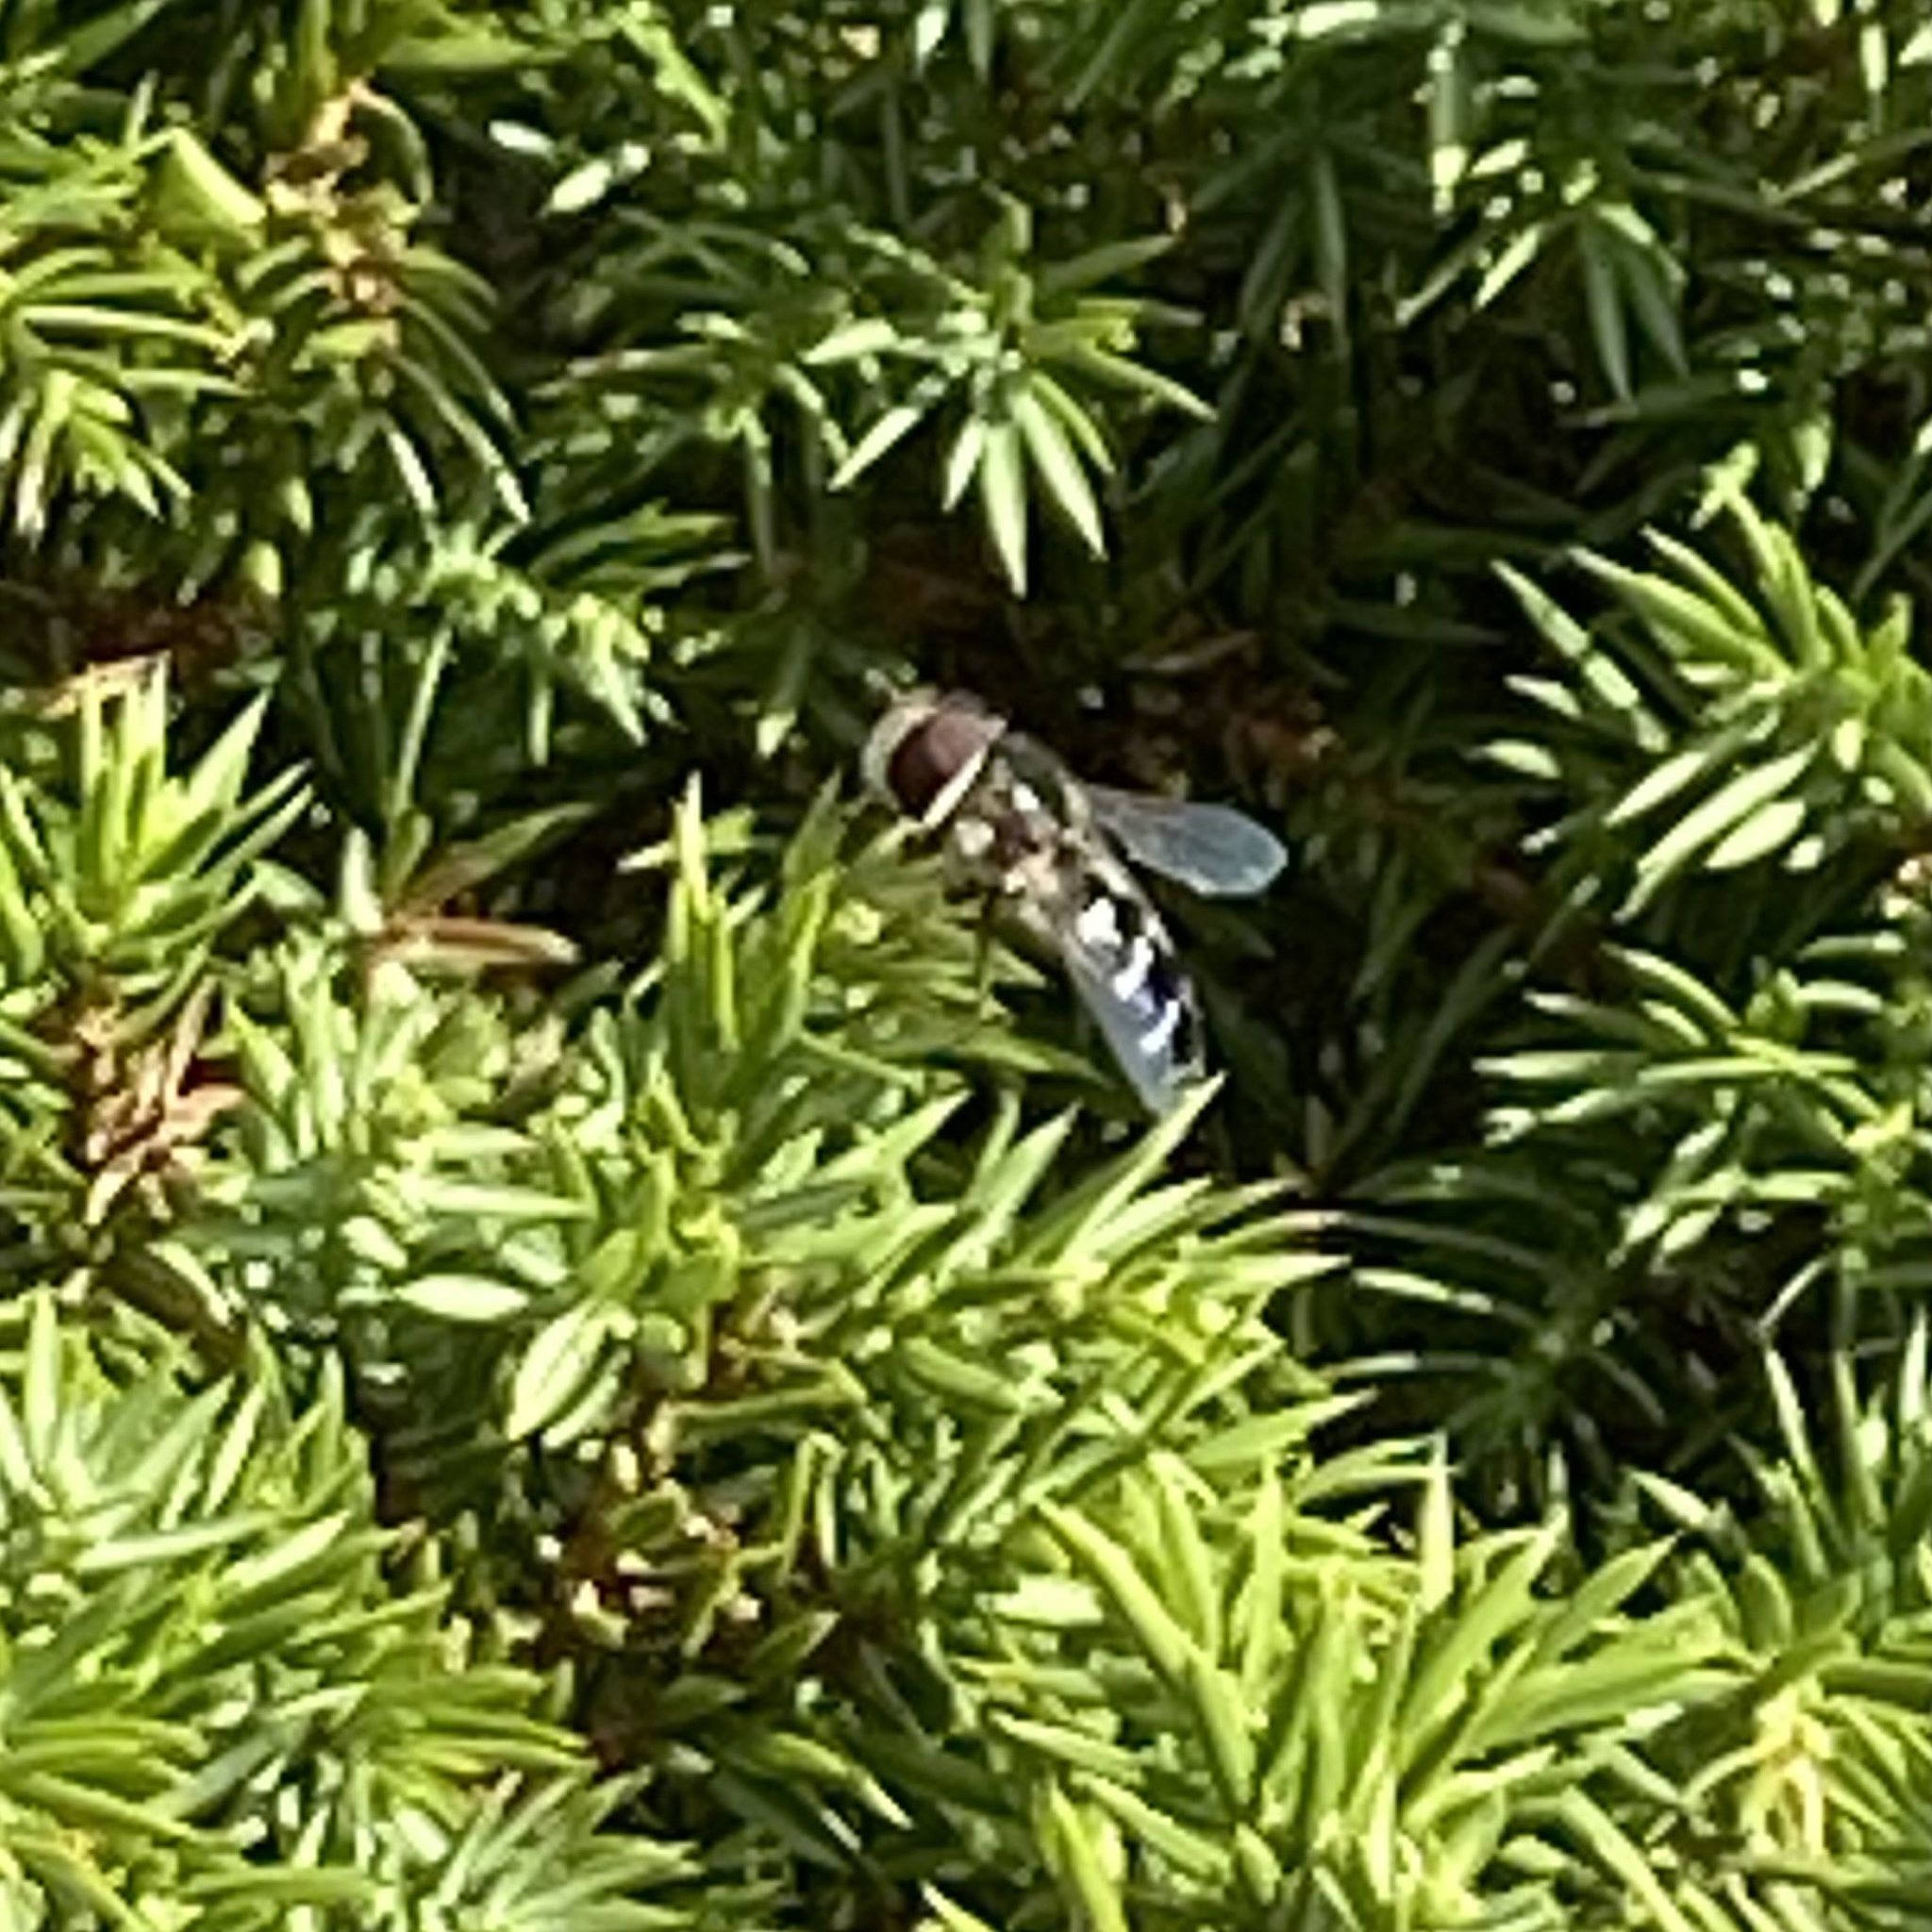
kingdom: Animalia
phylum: Arthropoda
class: Insecta
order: Diptera
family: Syrphidae
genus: Scaeva
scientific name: Scaeva pyrastri
